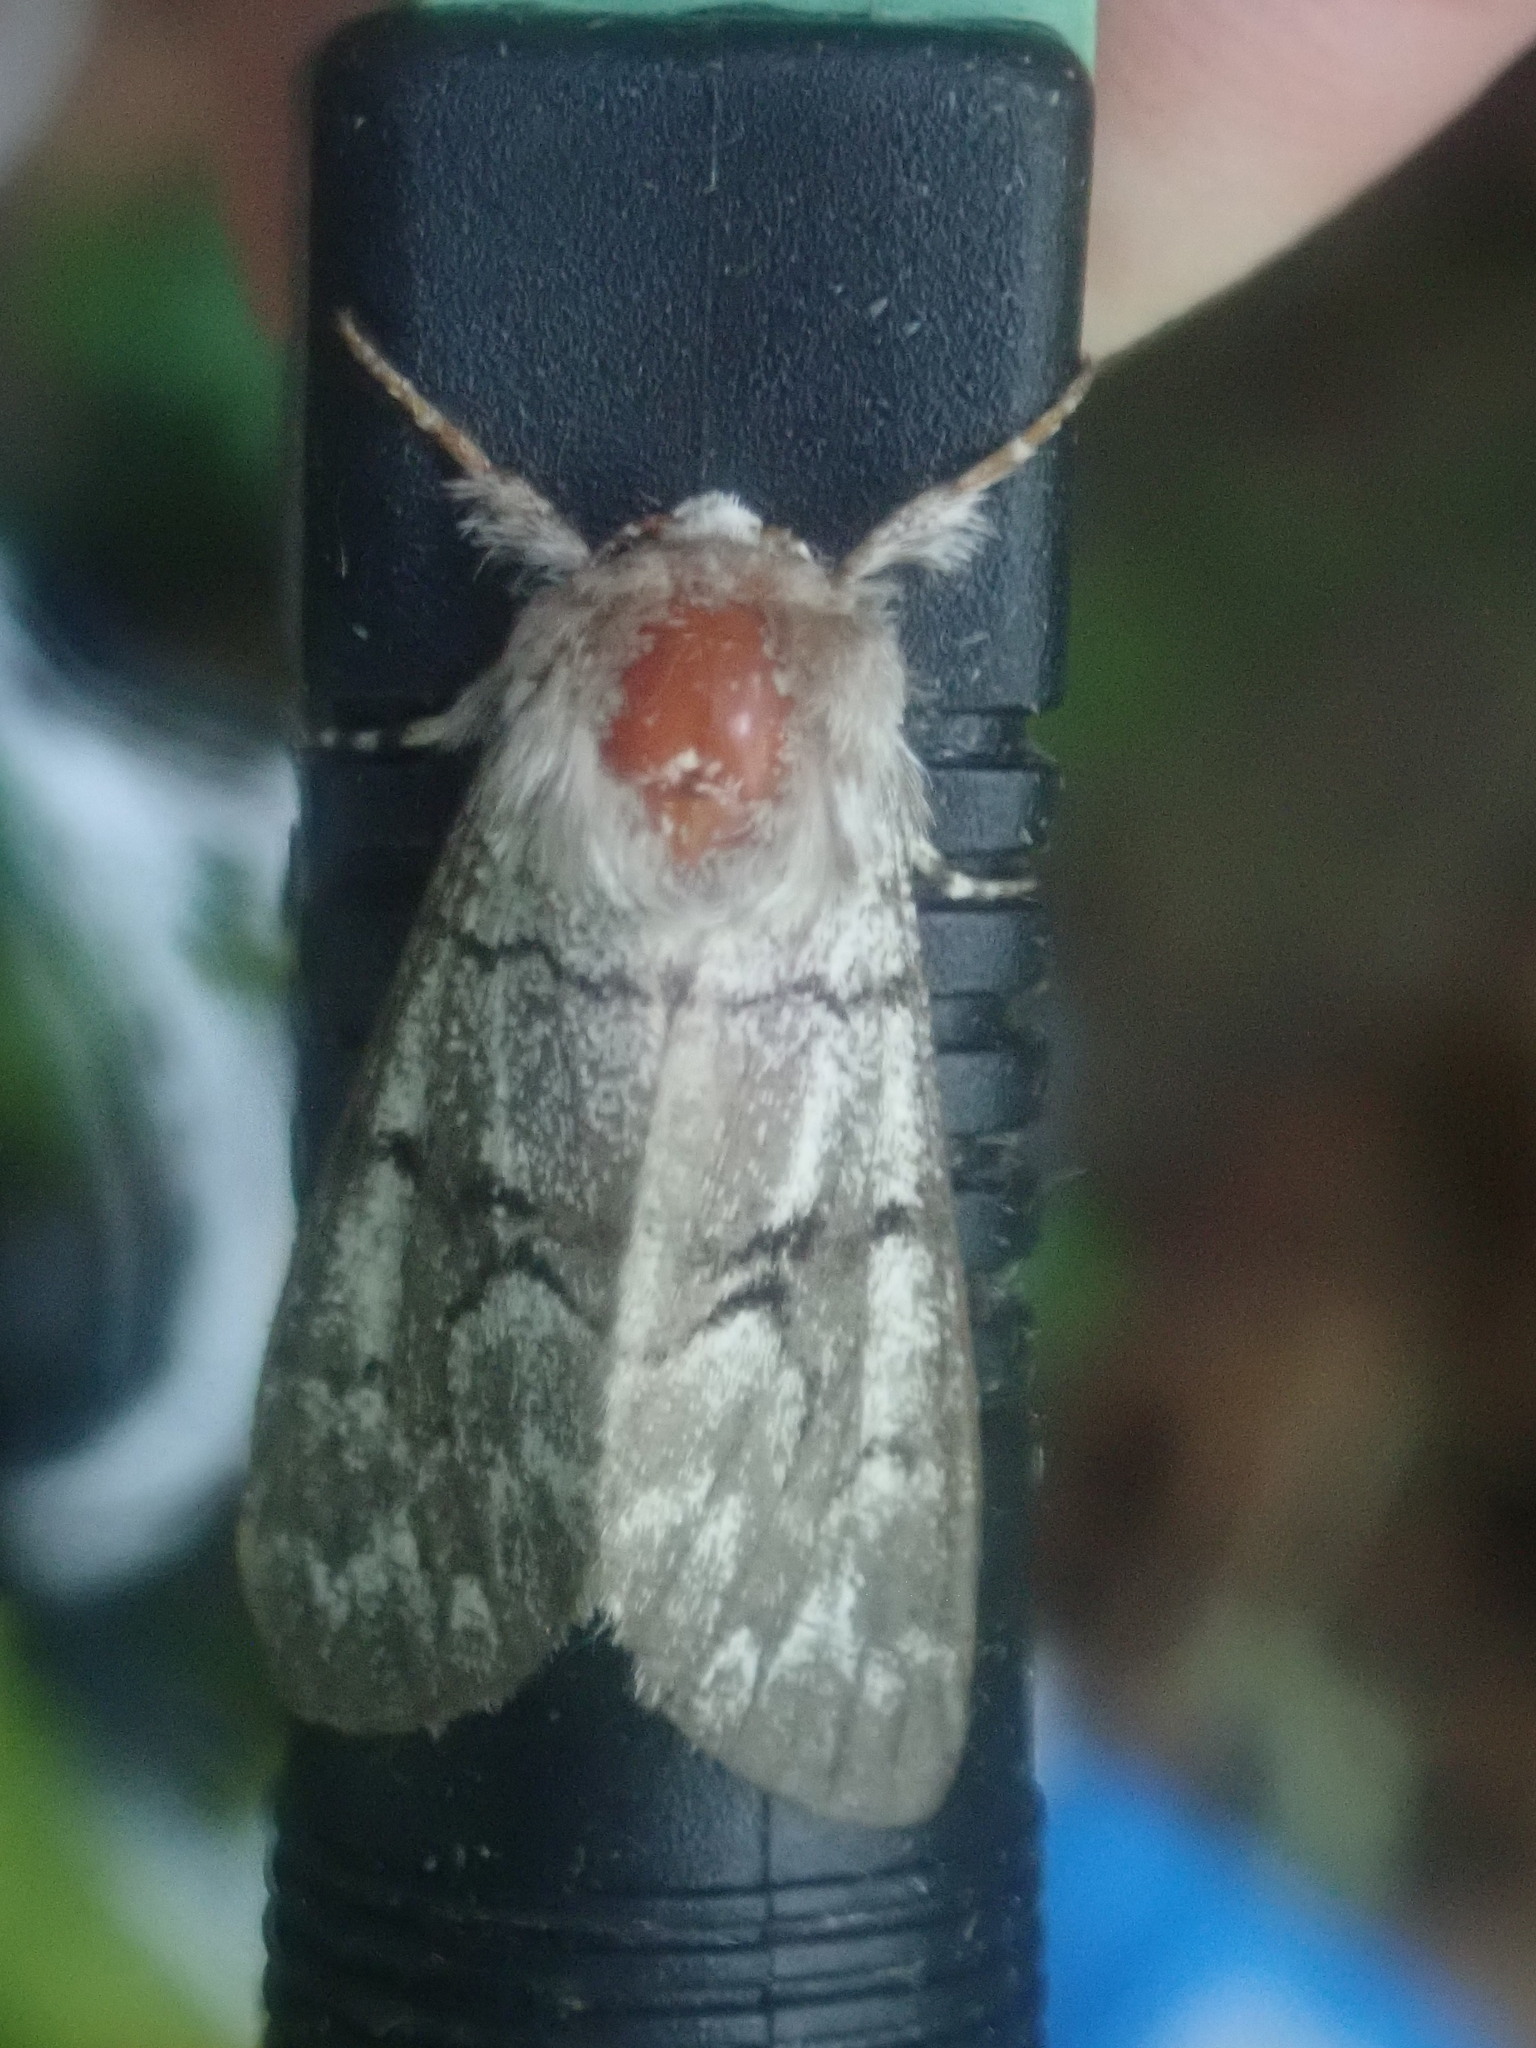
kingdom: Animalia
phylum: Arthropoda
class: Insecta
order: Lepidoptera
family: Noctuidae
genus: Panthea
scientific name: Panthea furcilla
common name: Eastern panthea moth
